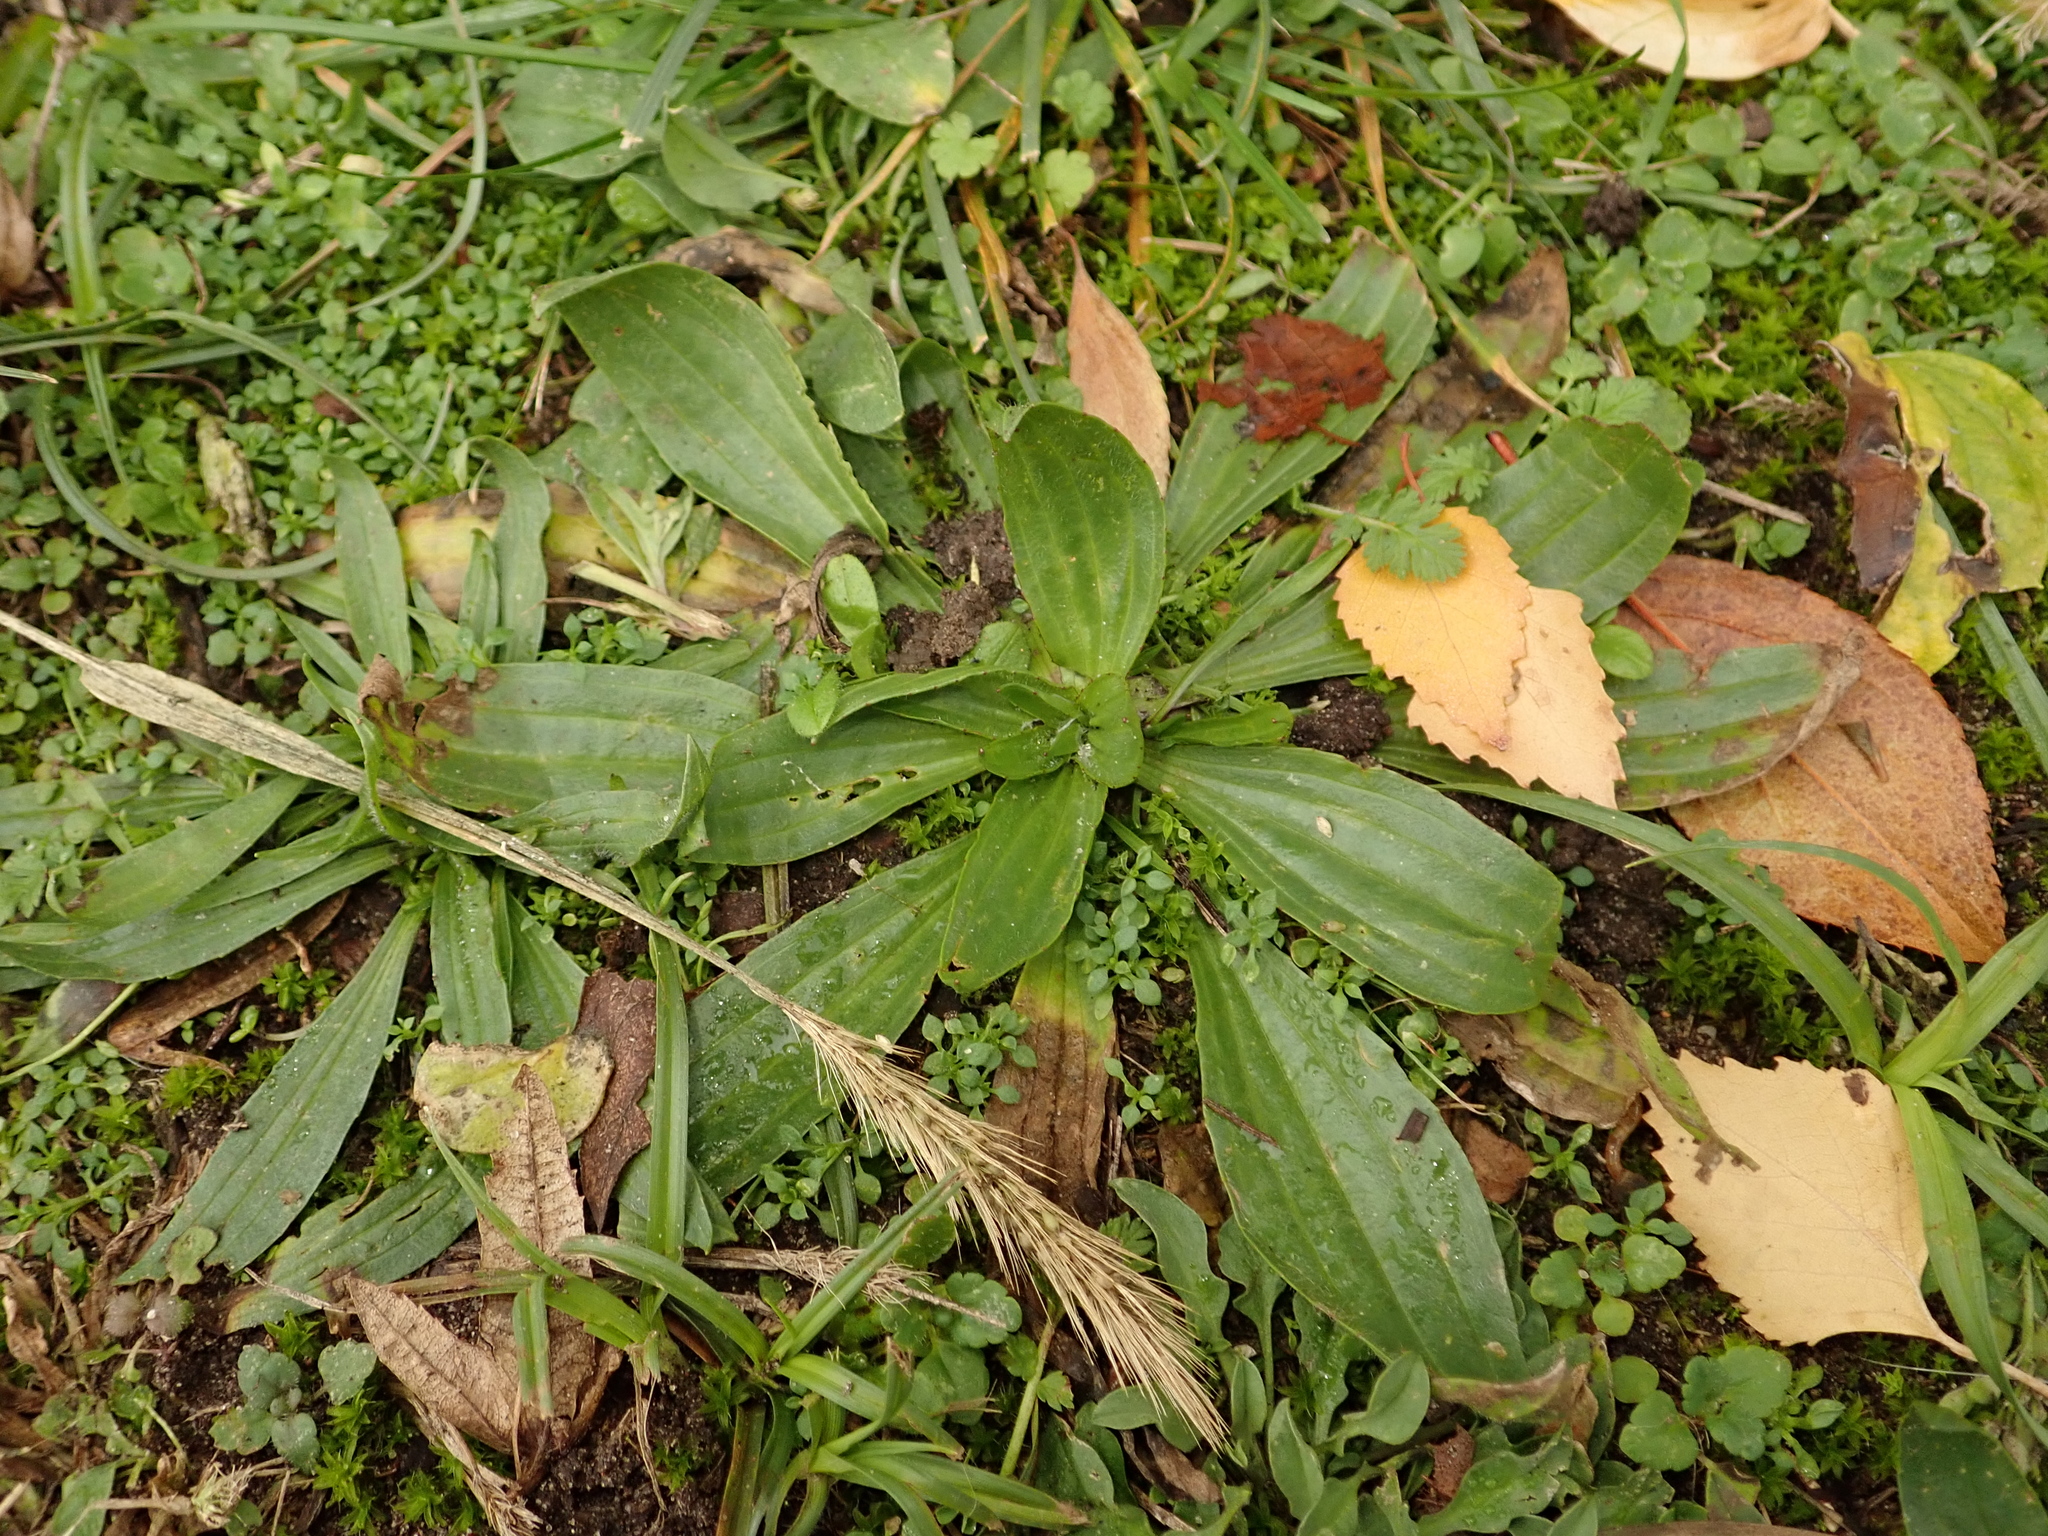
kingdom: Plantae
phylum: Tracheophyta
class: Magnoliopsida
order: Lamiales
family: Plantaginaceae
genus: Plantago
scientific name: Plantago lanceolata
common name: Ribwort plantain
